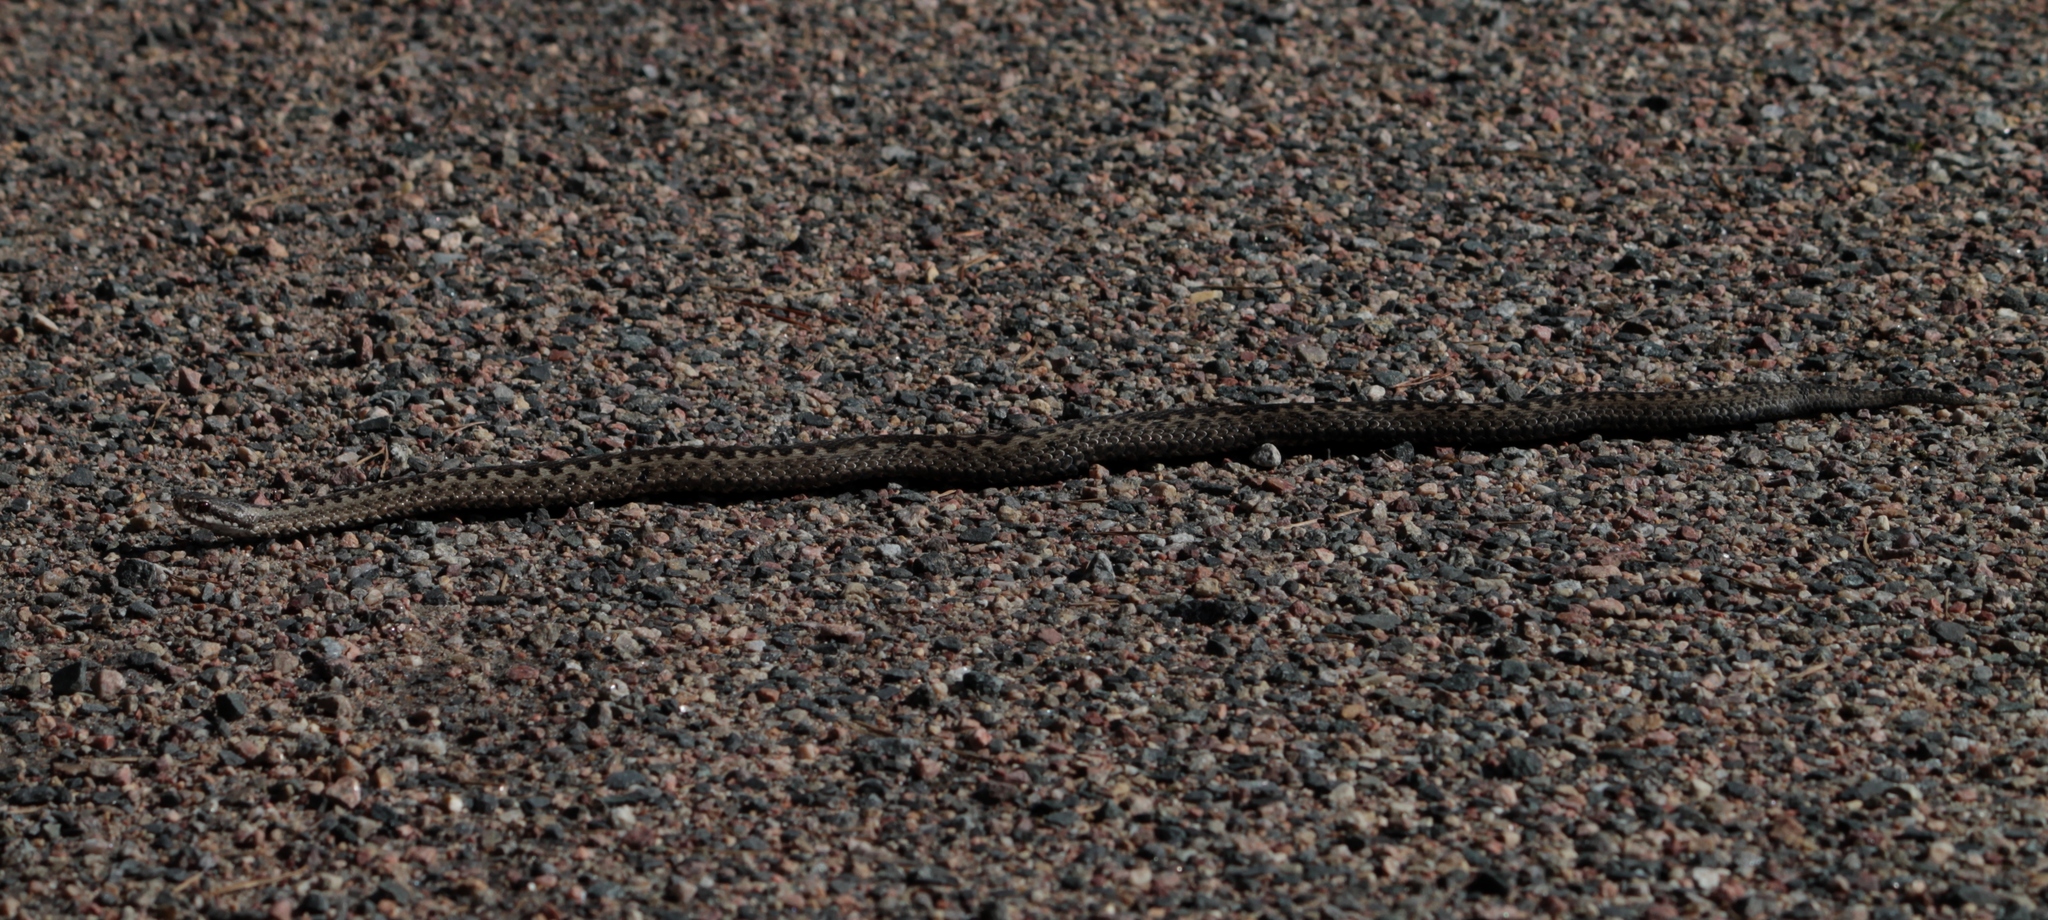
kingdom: Animalia
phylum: Chordata
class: Squamata
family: Viperidae
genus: Vipera
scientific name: Vipera berus
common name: Adder
